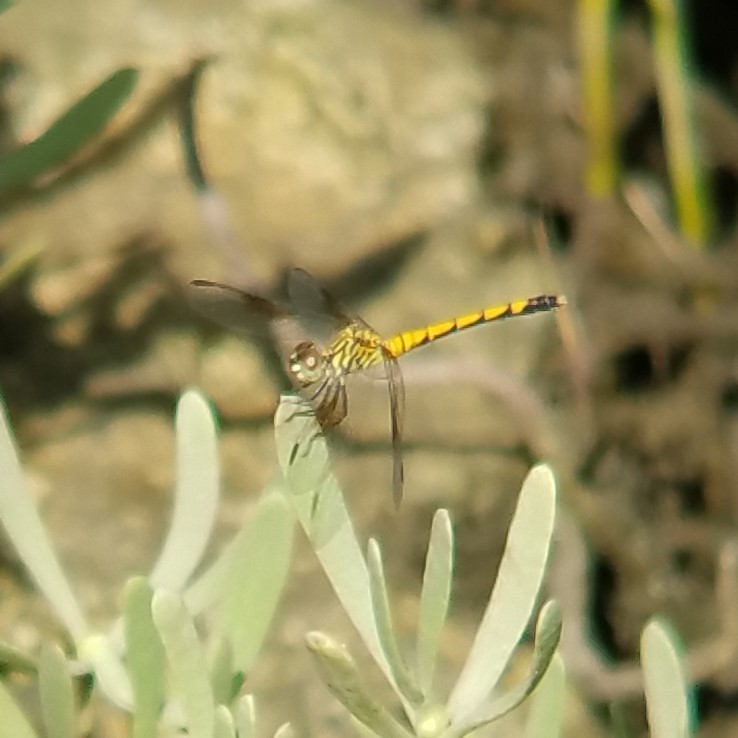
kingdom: Animalia
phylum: Arthropoda
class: Insecta
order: Odonata
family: Libellulidae
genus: Erythrodiplax
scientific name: Erythrodiplax berenice
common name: Seaside dragonlet
